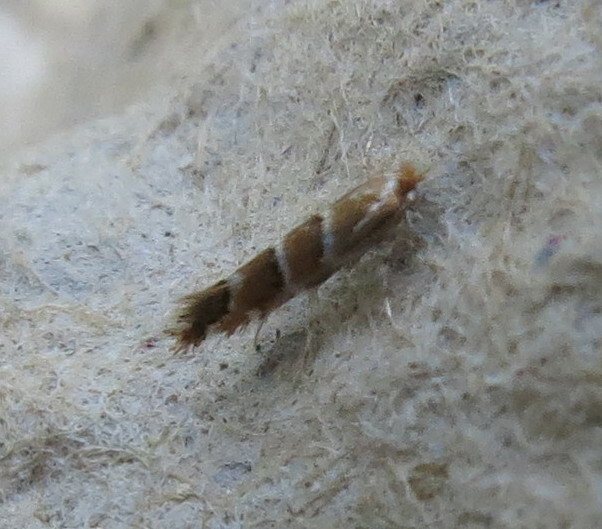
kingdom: Animalia
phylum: Arthropoda
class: Insecta
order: Lepidoptera
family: Gracillariidae
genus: Cameraria
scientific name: Cameraria ohridella
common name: Horse-chestnut leaf-miner
